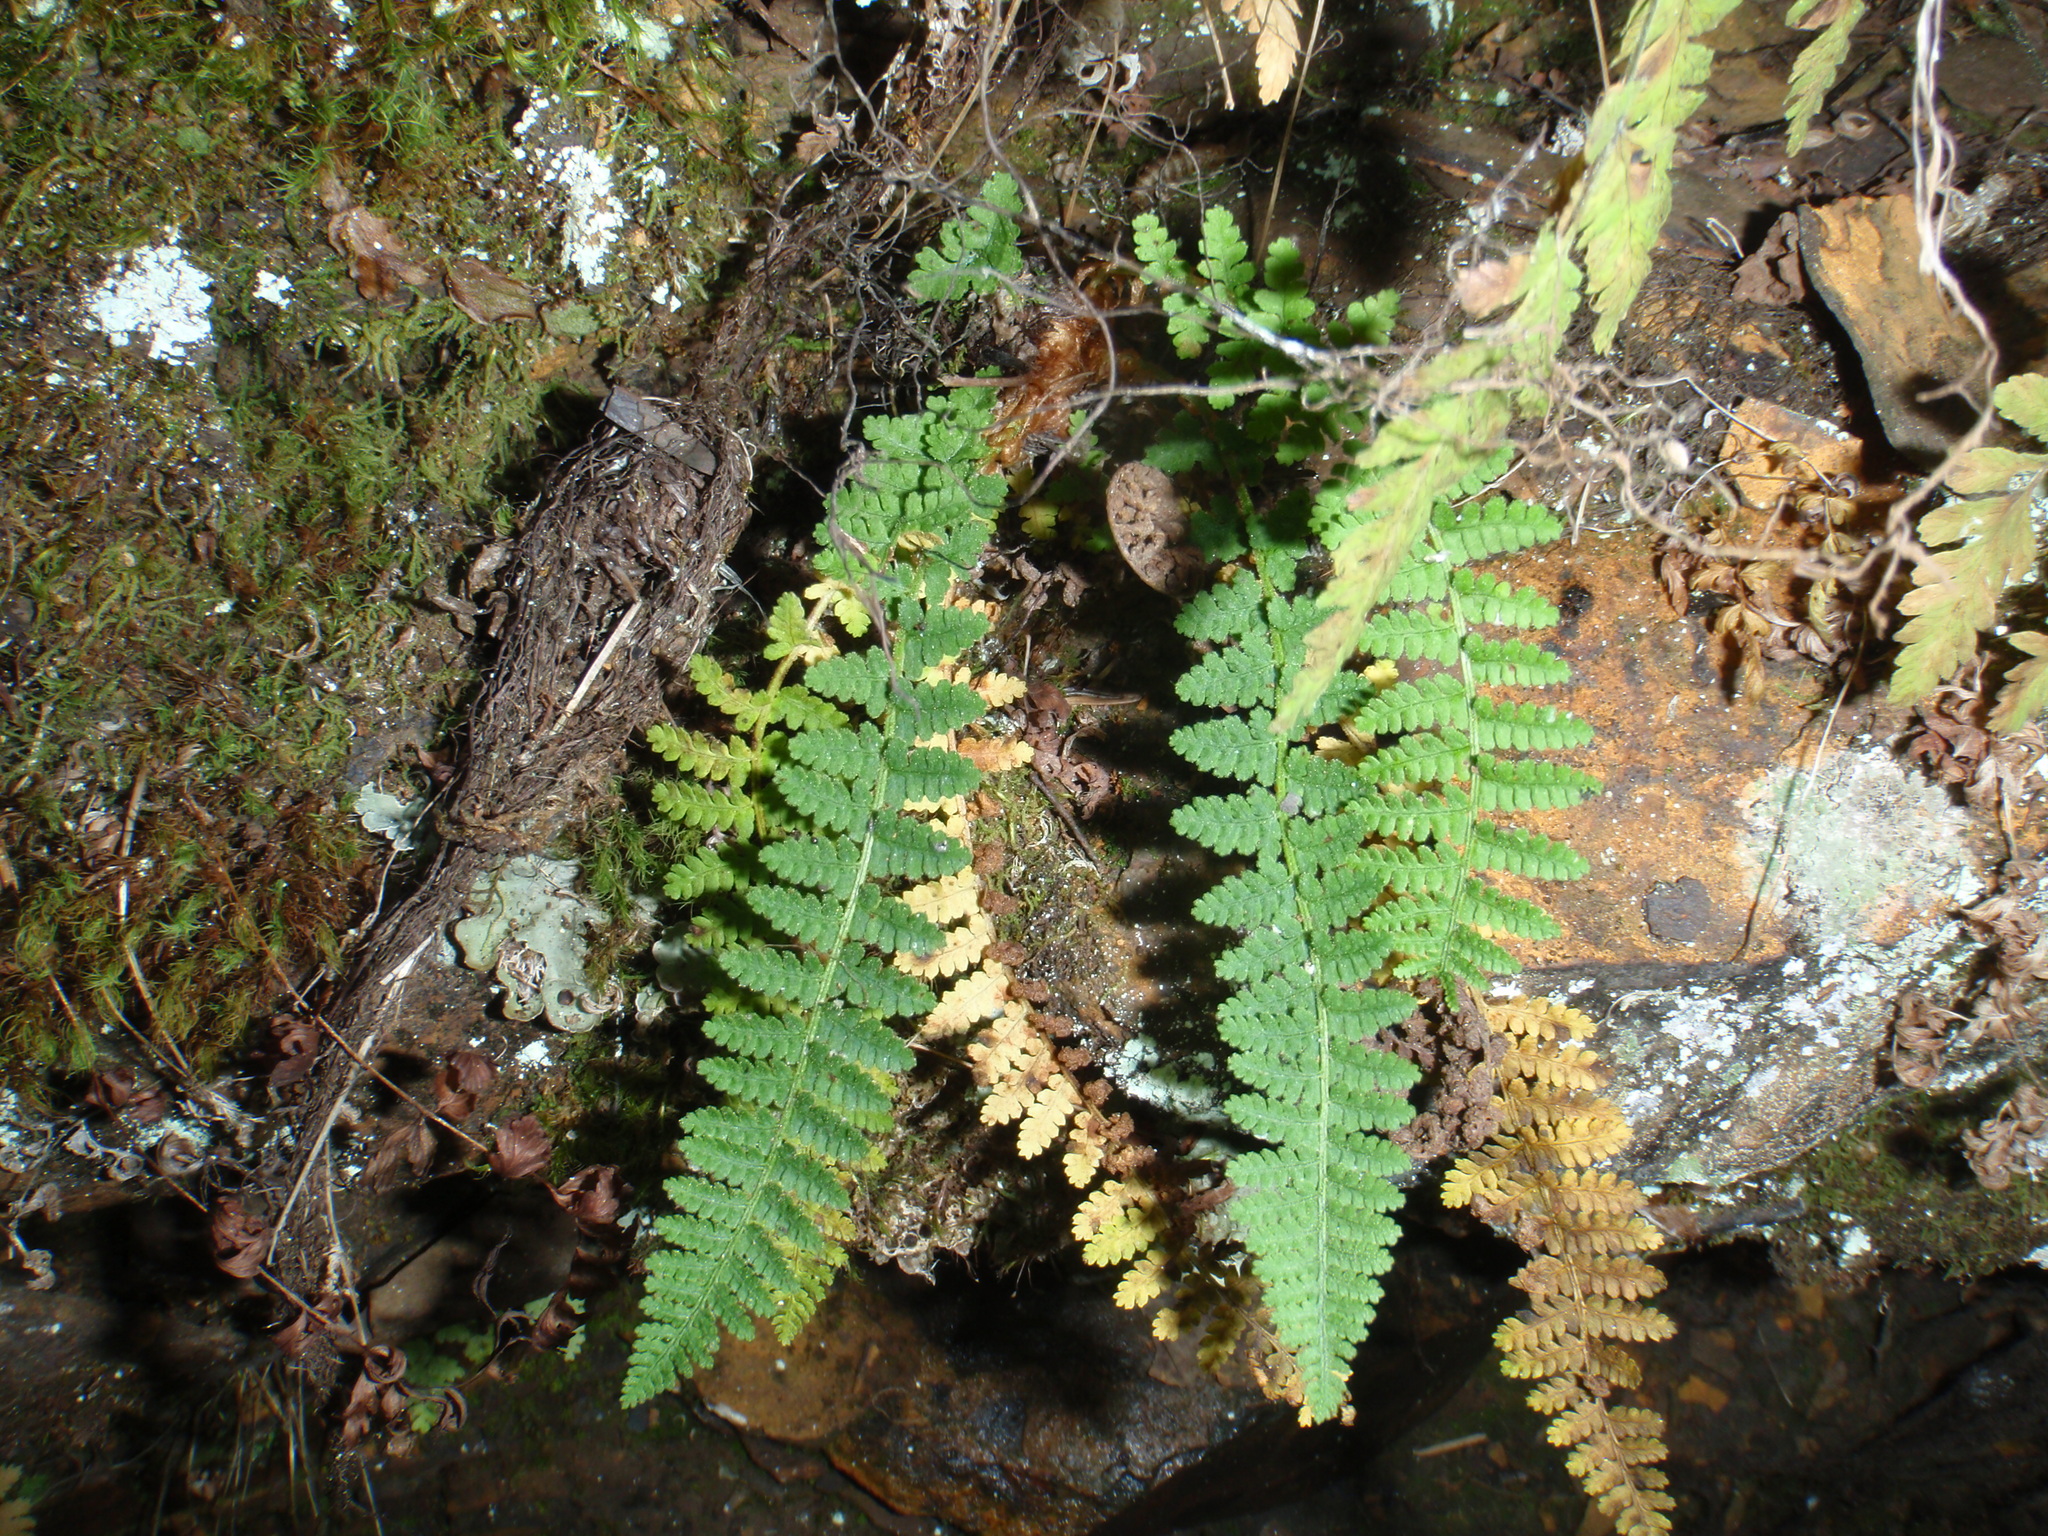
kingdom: Plantae
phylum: Tracheophyta
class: Polypodiopsida
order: Polypodiales
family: Dryopteridaceae
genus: Dryopteris
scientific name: Dryopteris fragrans
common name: Fragrant wood fern
